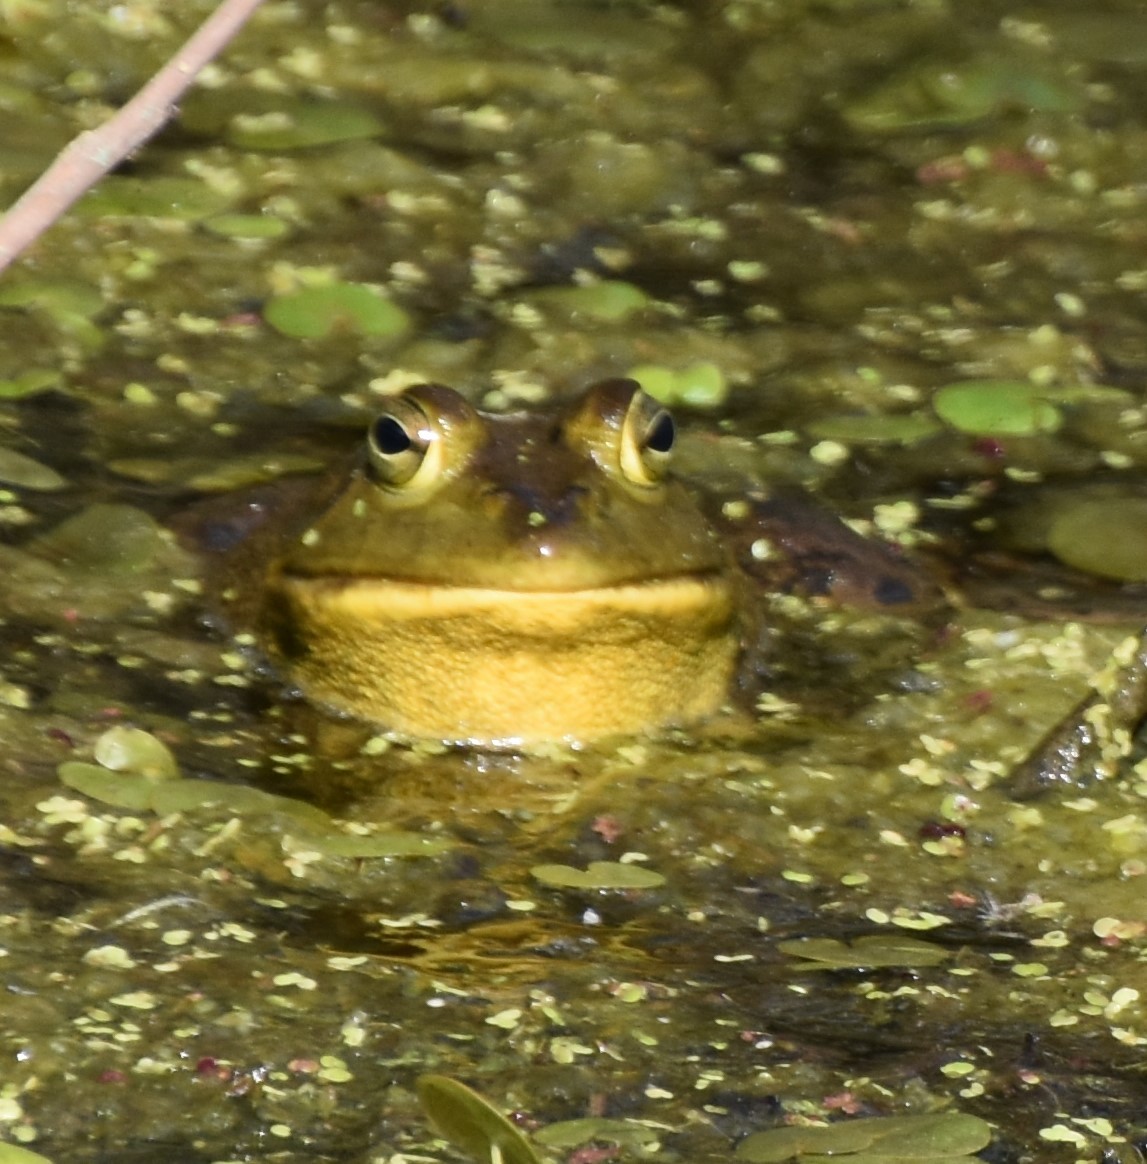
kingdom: Animalia
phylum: Chordata
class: Amphibia
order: Anura
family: Ranidae
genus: Lithobates
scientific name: Lithobates catesbeianus
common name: American bullfrog
